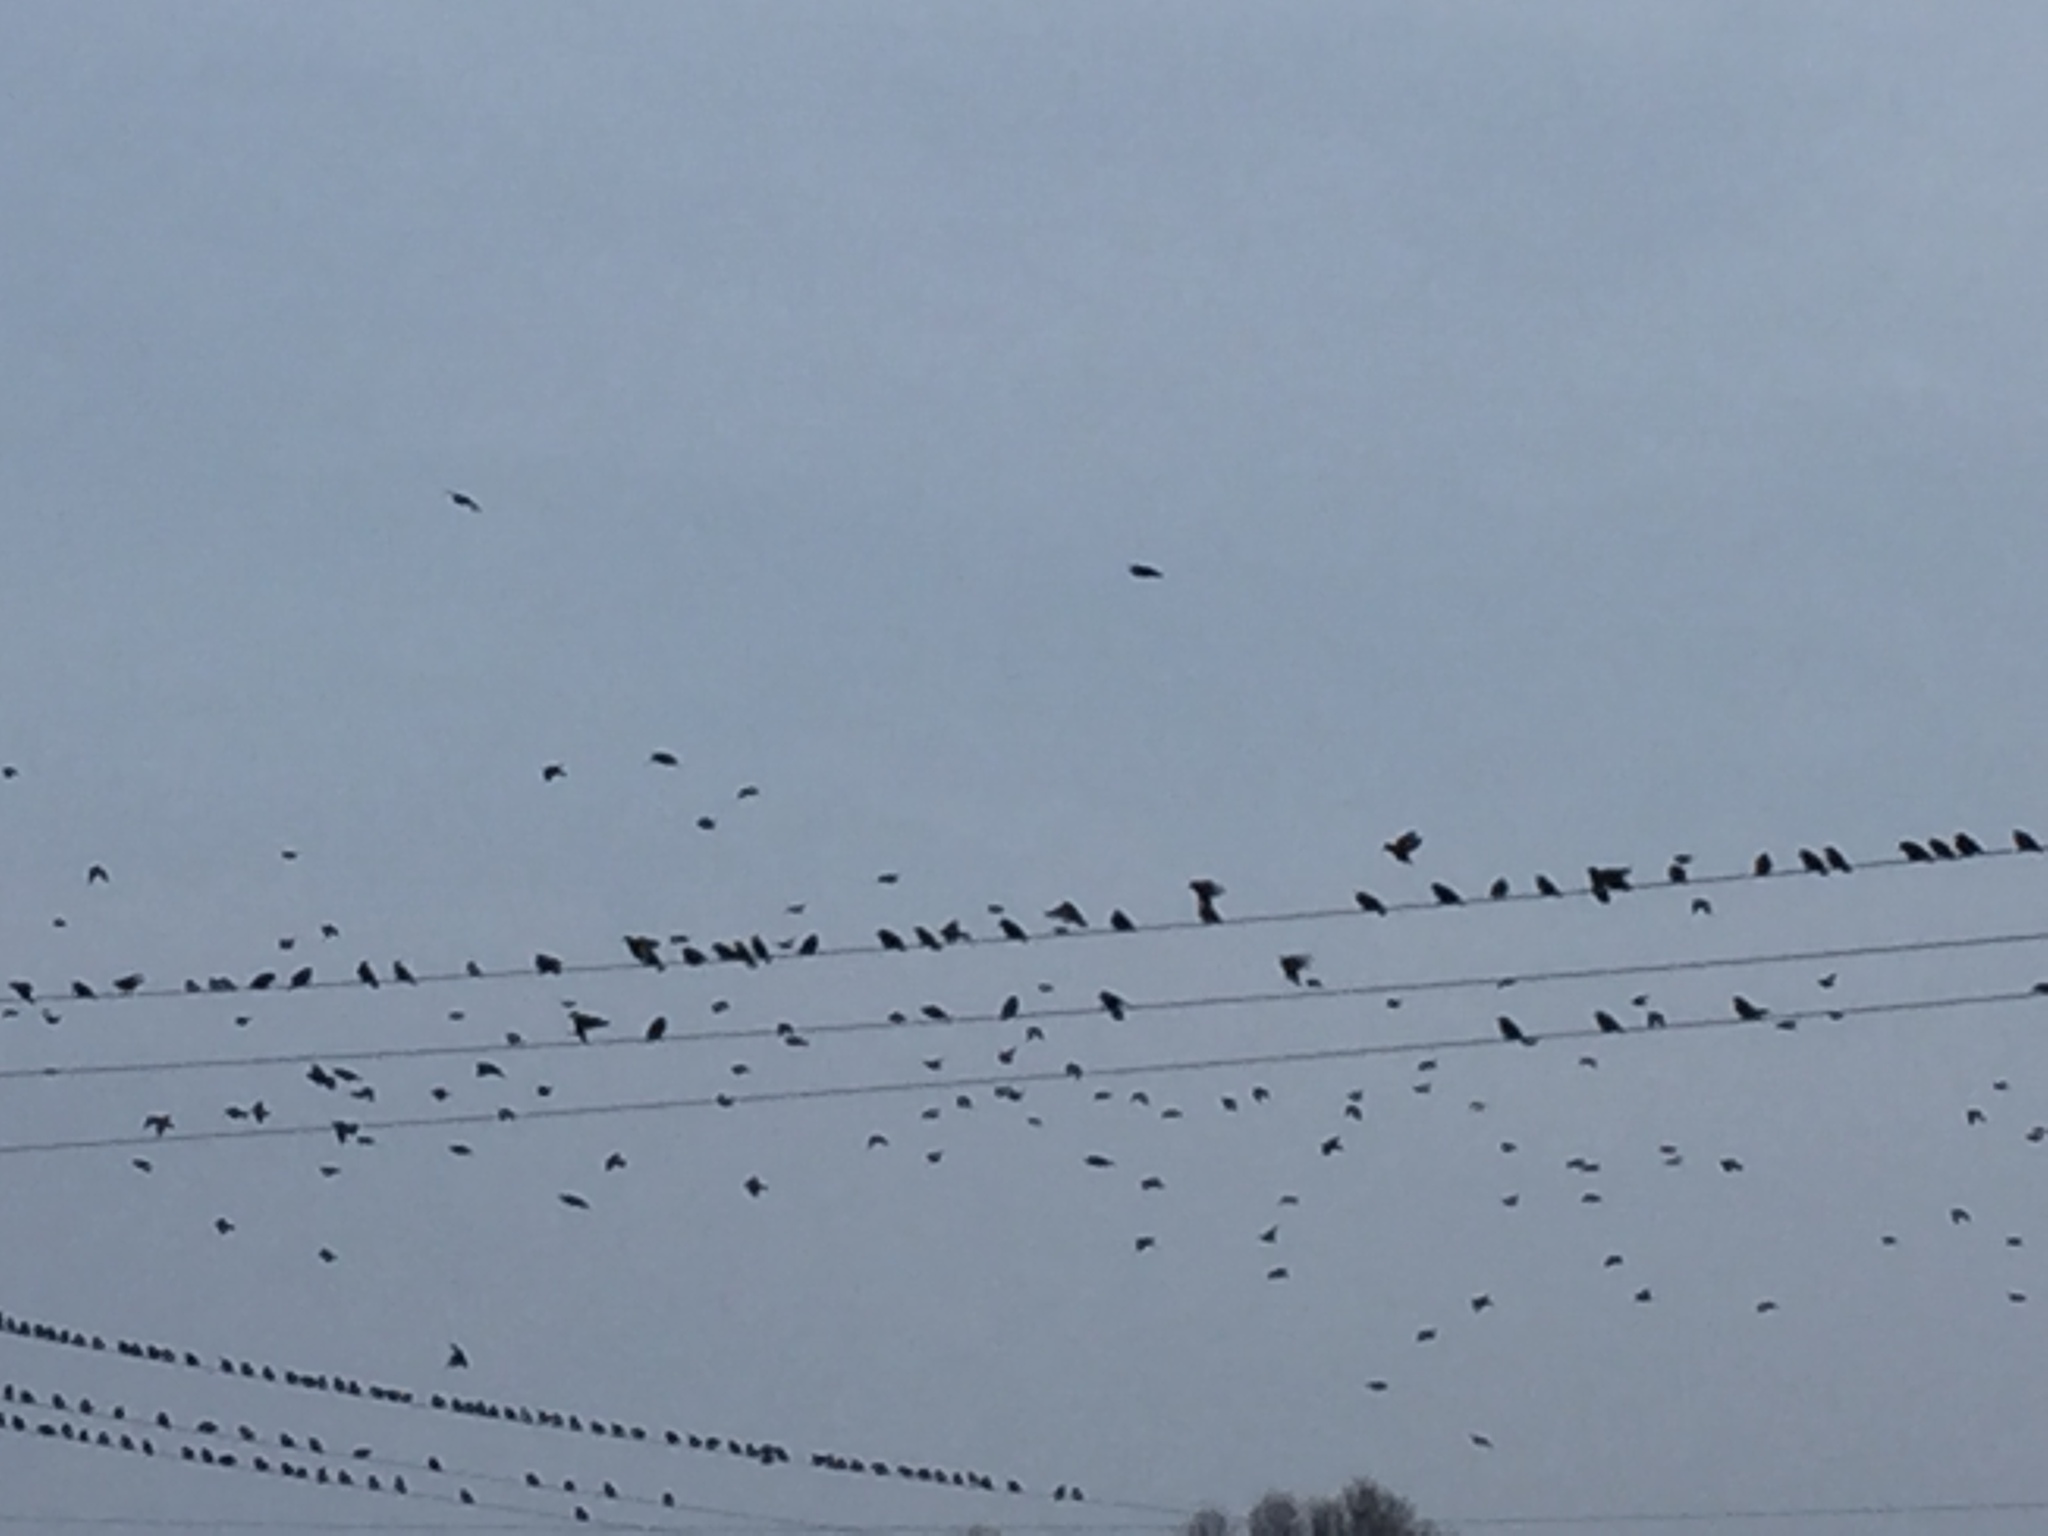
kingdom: Animalia
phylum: Chordata
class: Aves
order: Passeriformes
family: Sturnidae
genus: Sturnus
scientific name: Sturnus vulgaris
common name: Common starling
